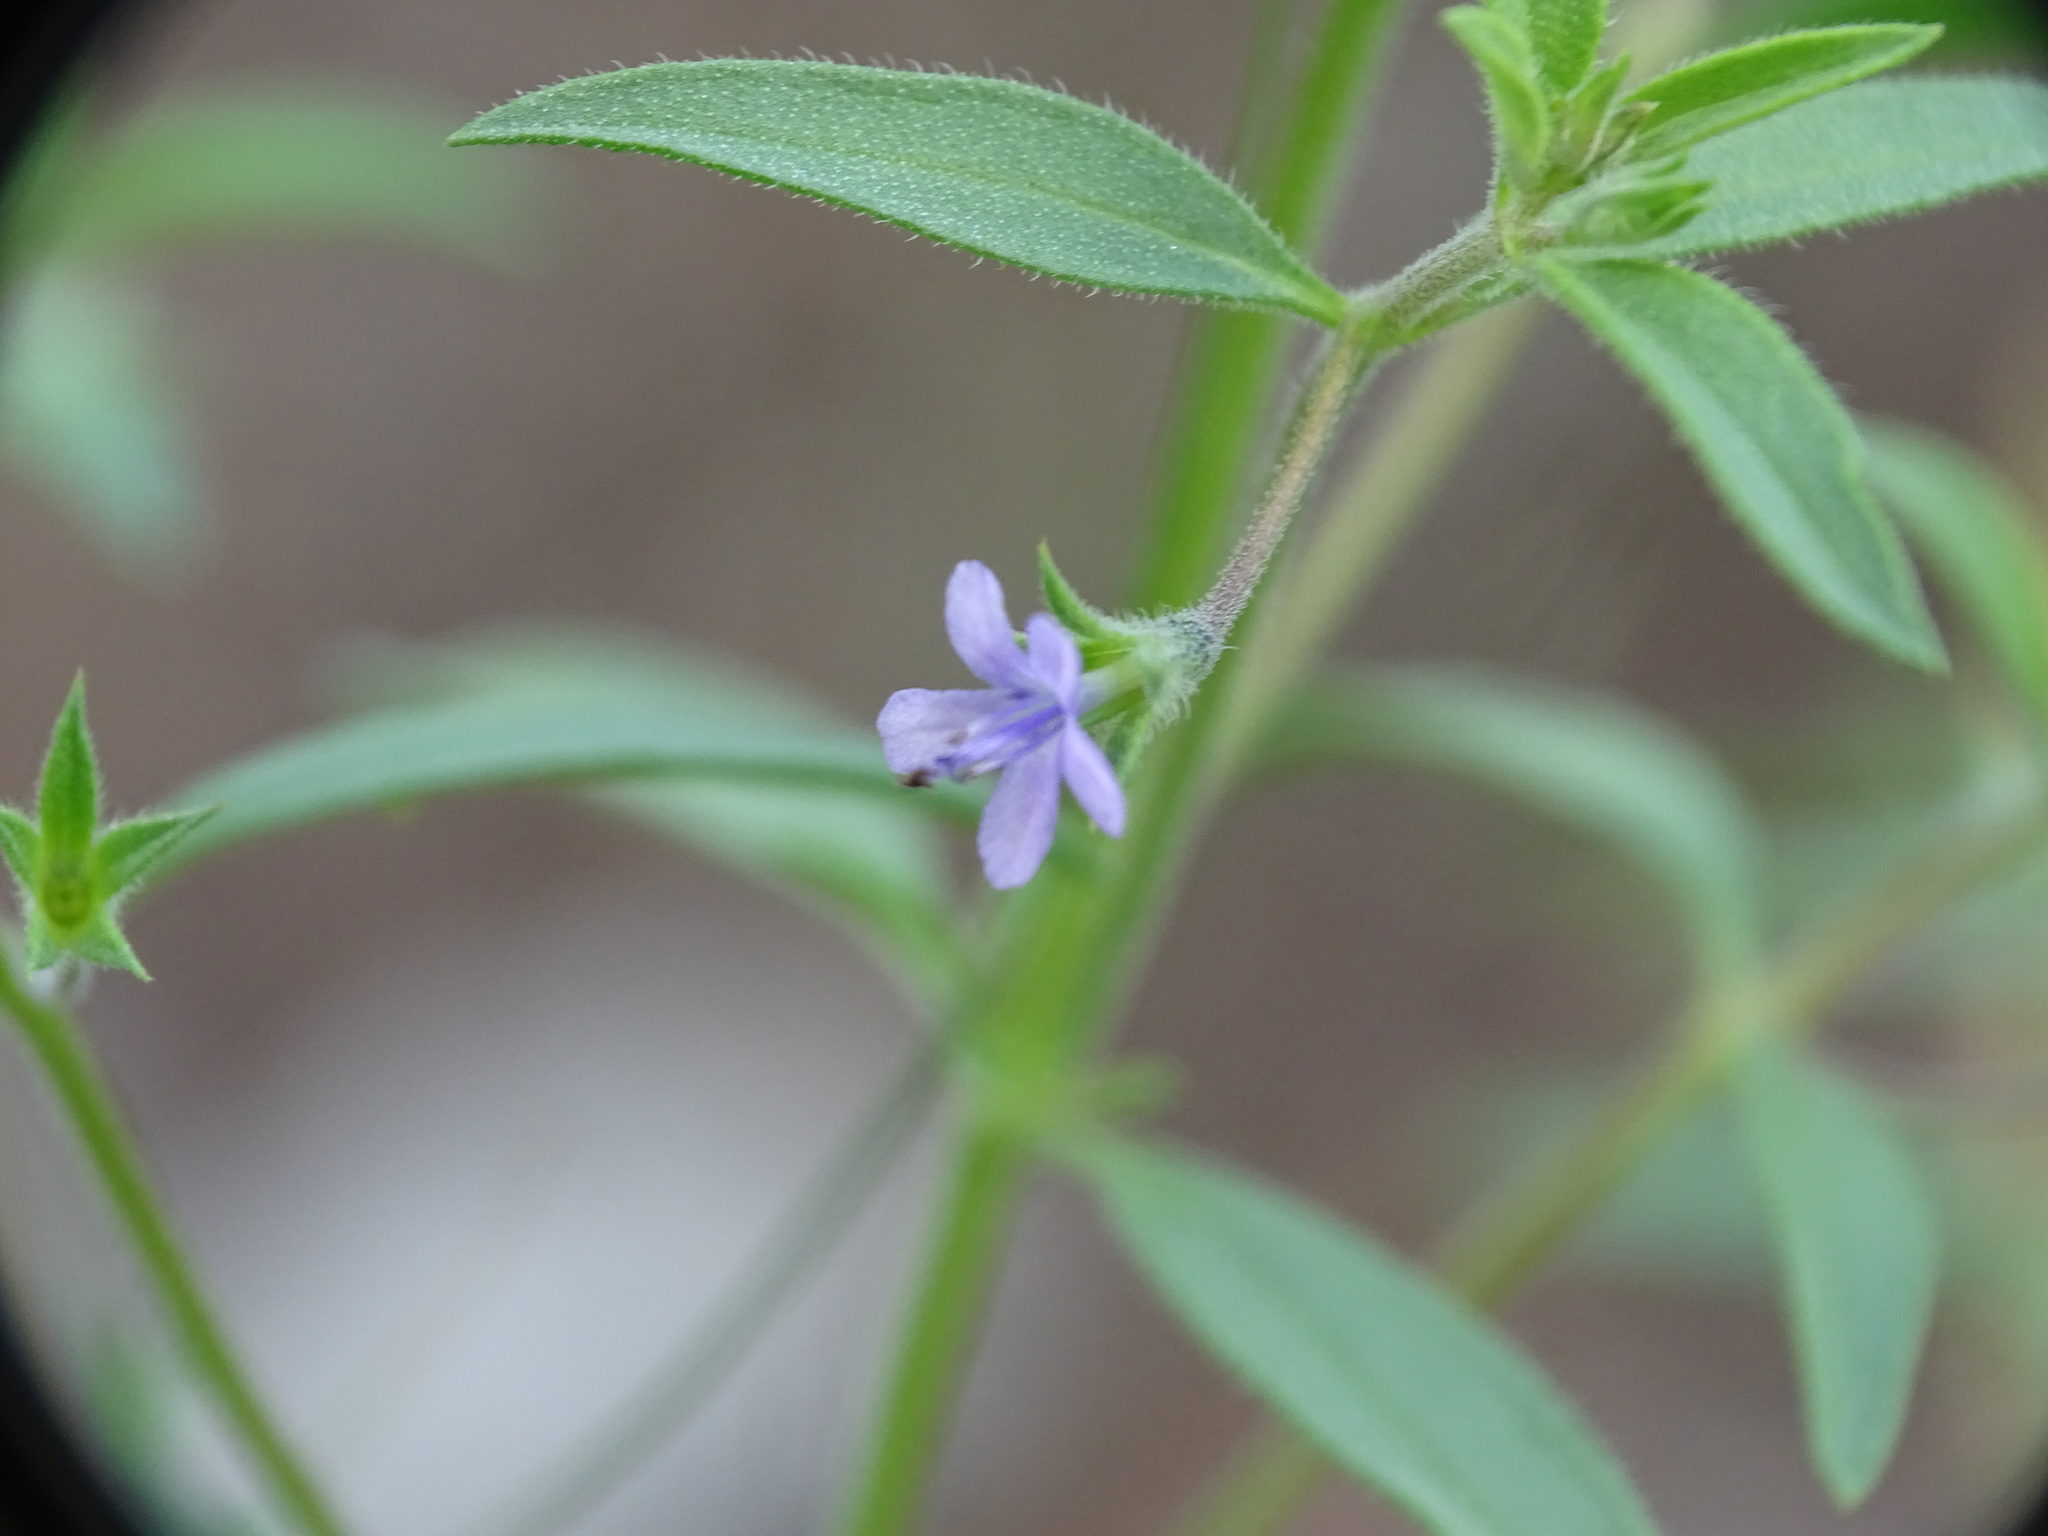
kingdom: Plantae
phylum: Tracheophyta
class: Magnoliopsida
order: Lamiales
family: Lamiaceae
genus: Trichostema
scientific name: Trichostema brachiatum
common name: False pennyroyal
